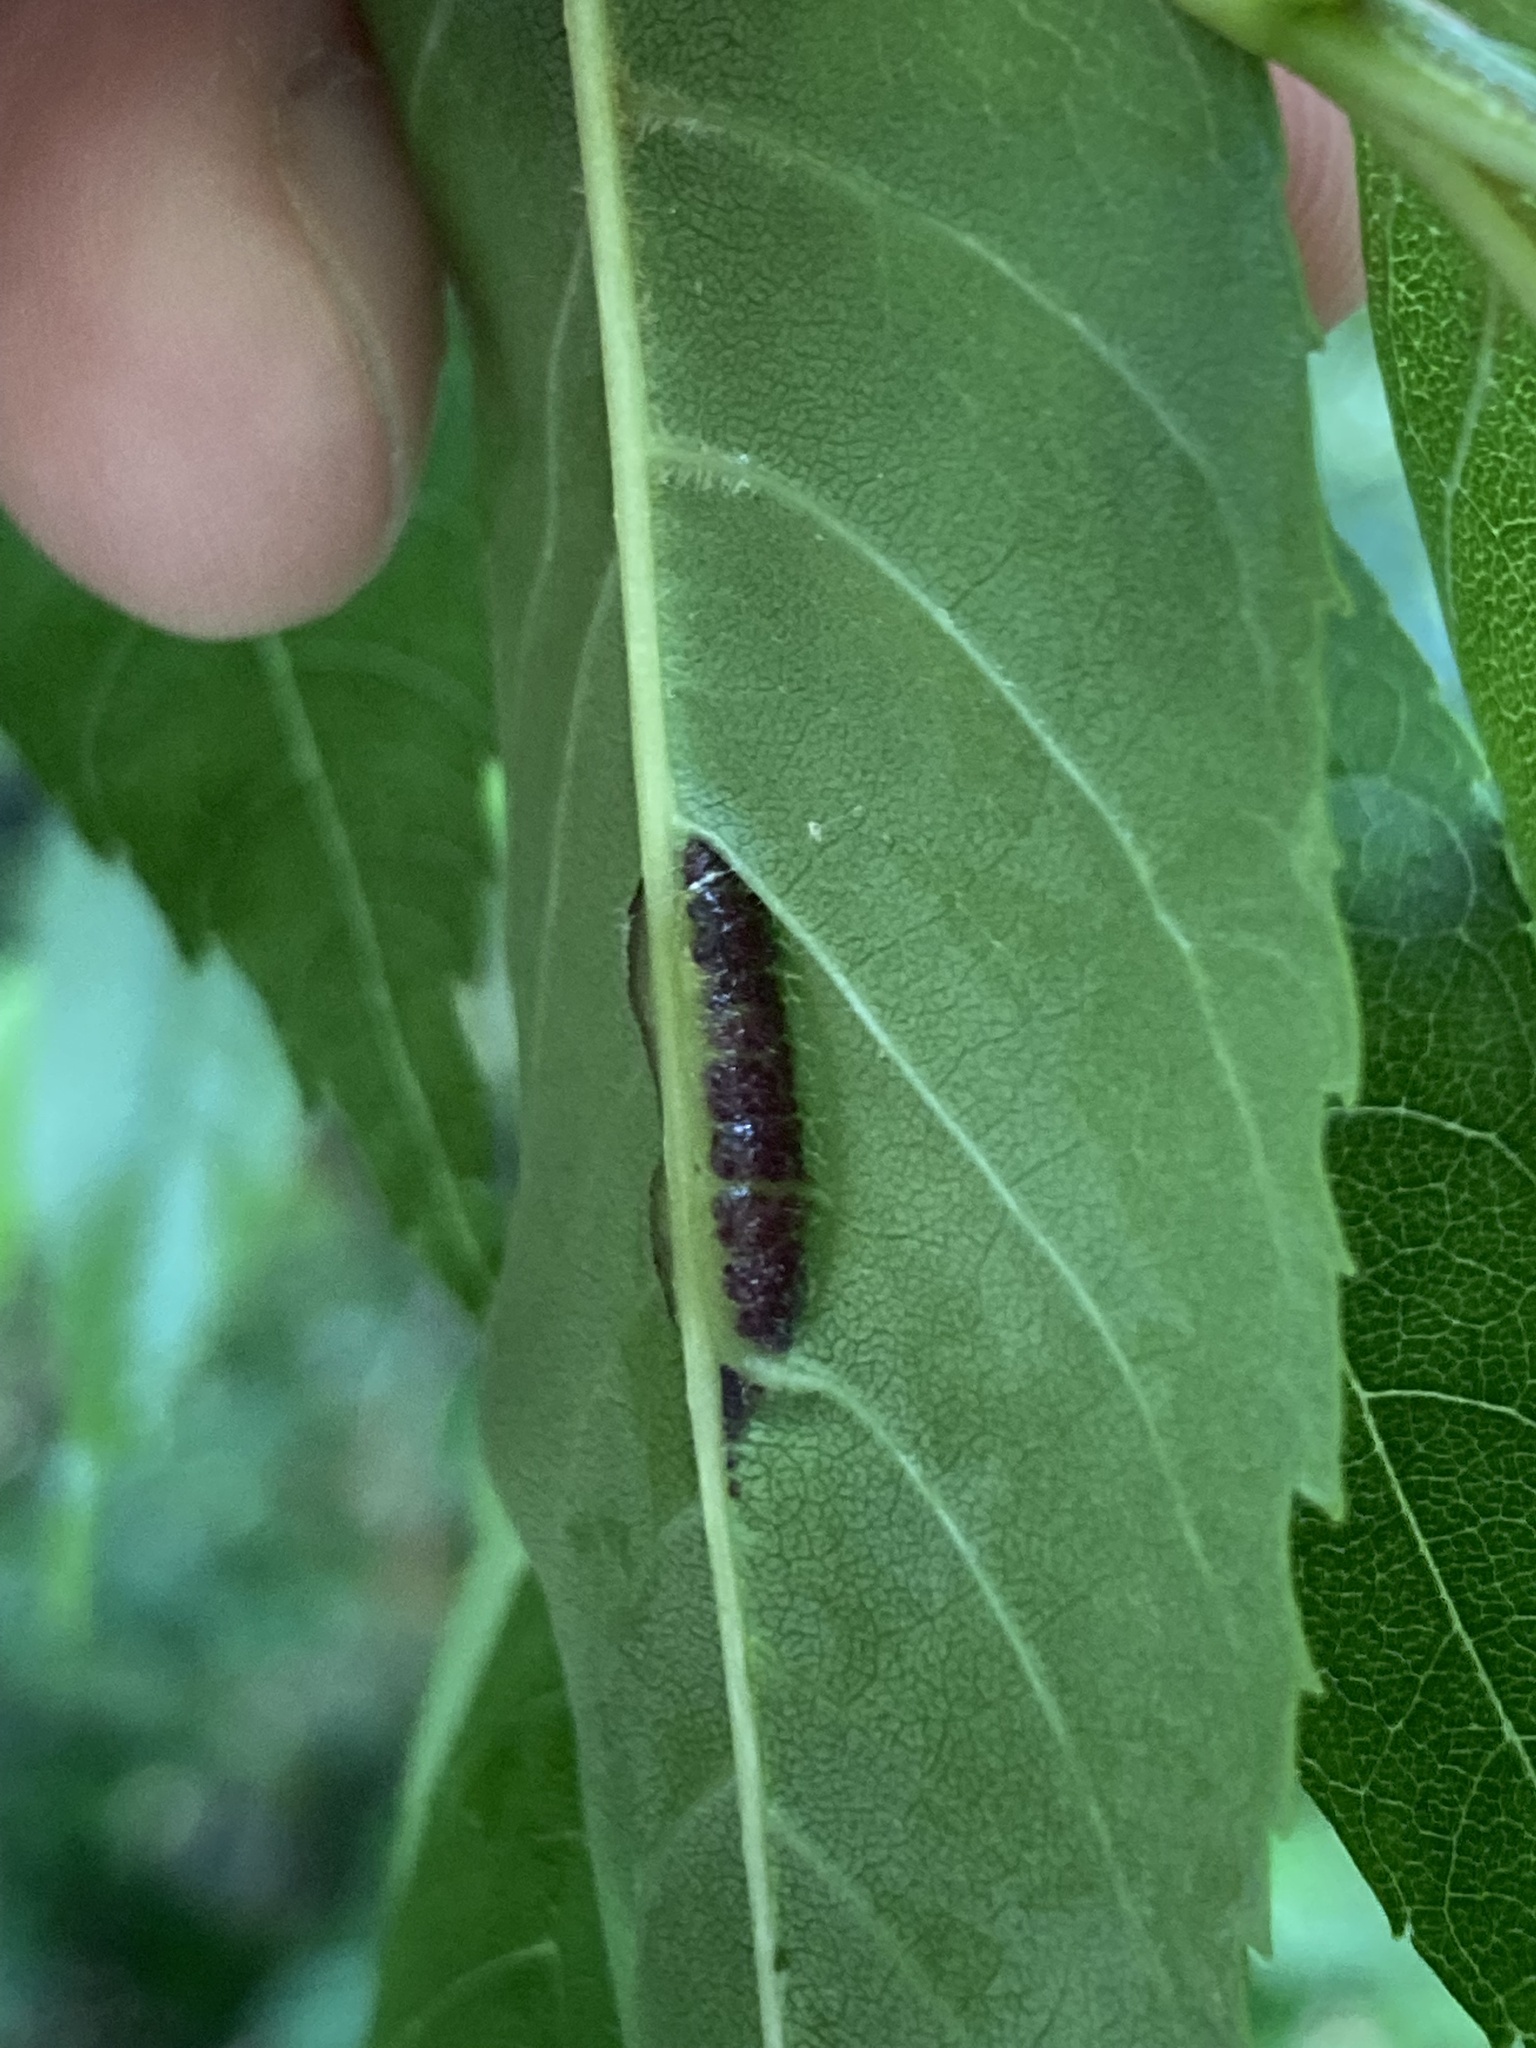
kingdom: Animalia
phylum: Arthropoda
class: Insecta
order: Diptera
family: Cecidomyiidae
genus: Dasineura
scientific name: Dasineura fraxini
